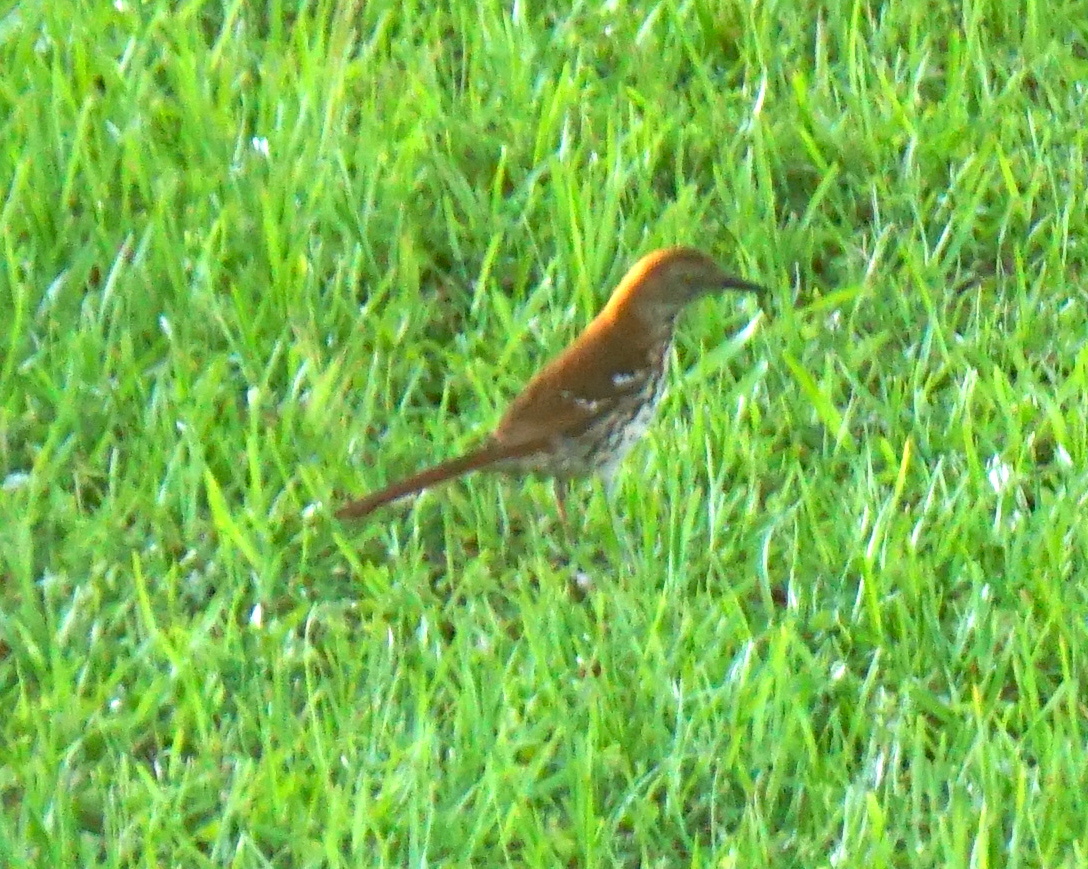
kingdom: Animalia
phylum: Chordata
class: Aves
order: Passeriformes
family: Mimidae
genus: Toxostoma
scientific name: Toxostoma rufum
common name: Brown thrasher
